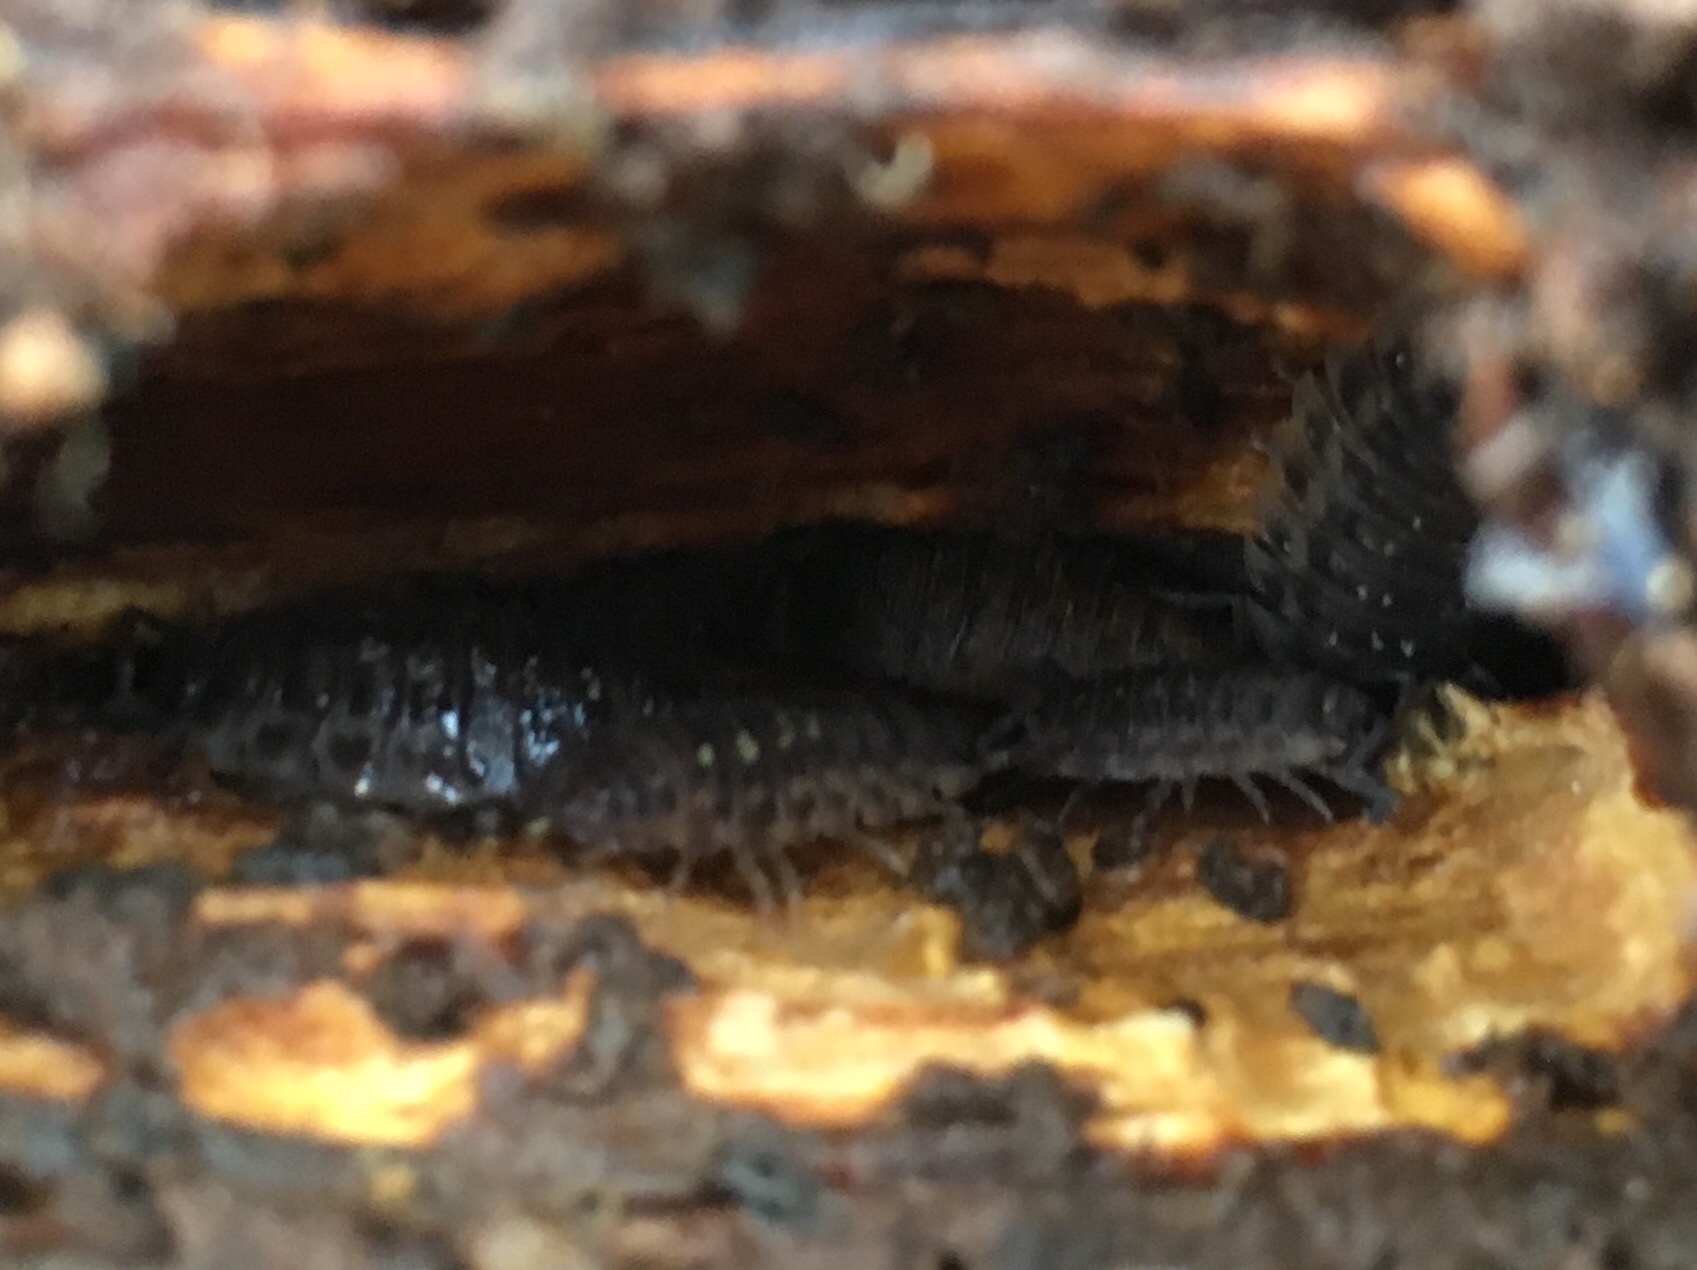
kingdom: Animalia
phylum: Arthropoda
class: Malacostraca
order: Isopoda
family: Oniscidae
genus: Oniscus
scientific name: Oniscus asellus
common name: Common shiny woodlouse
